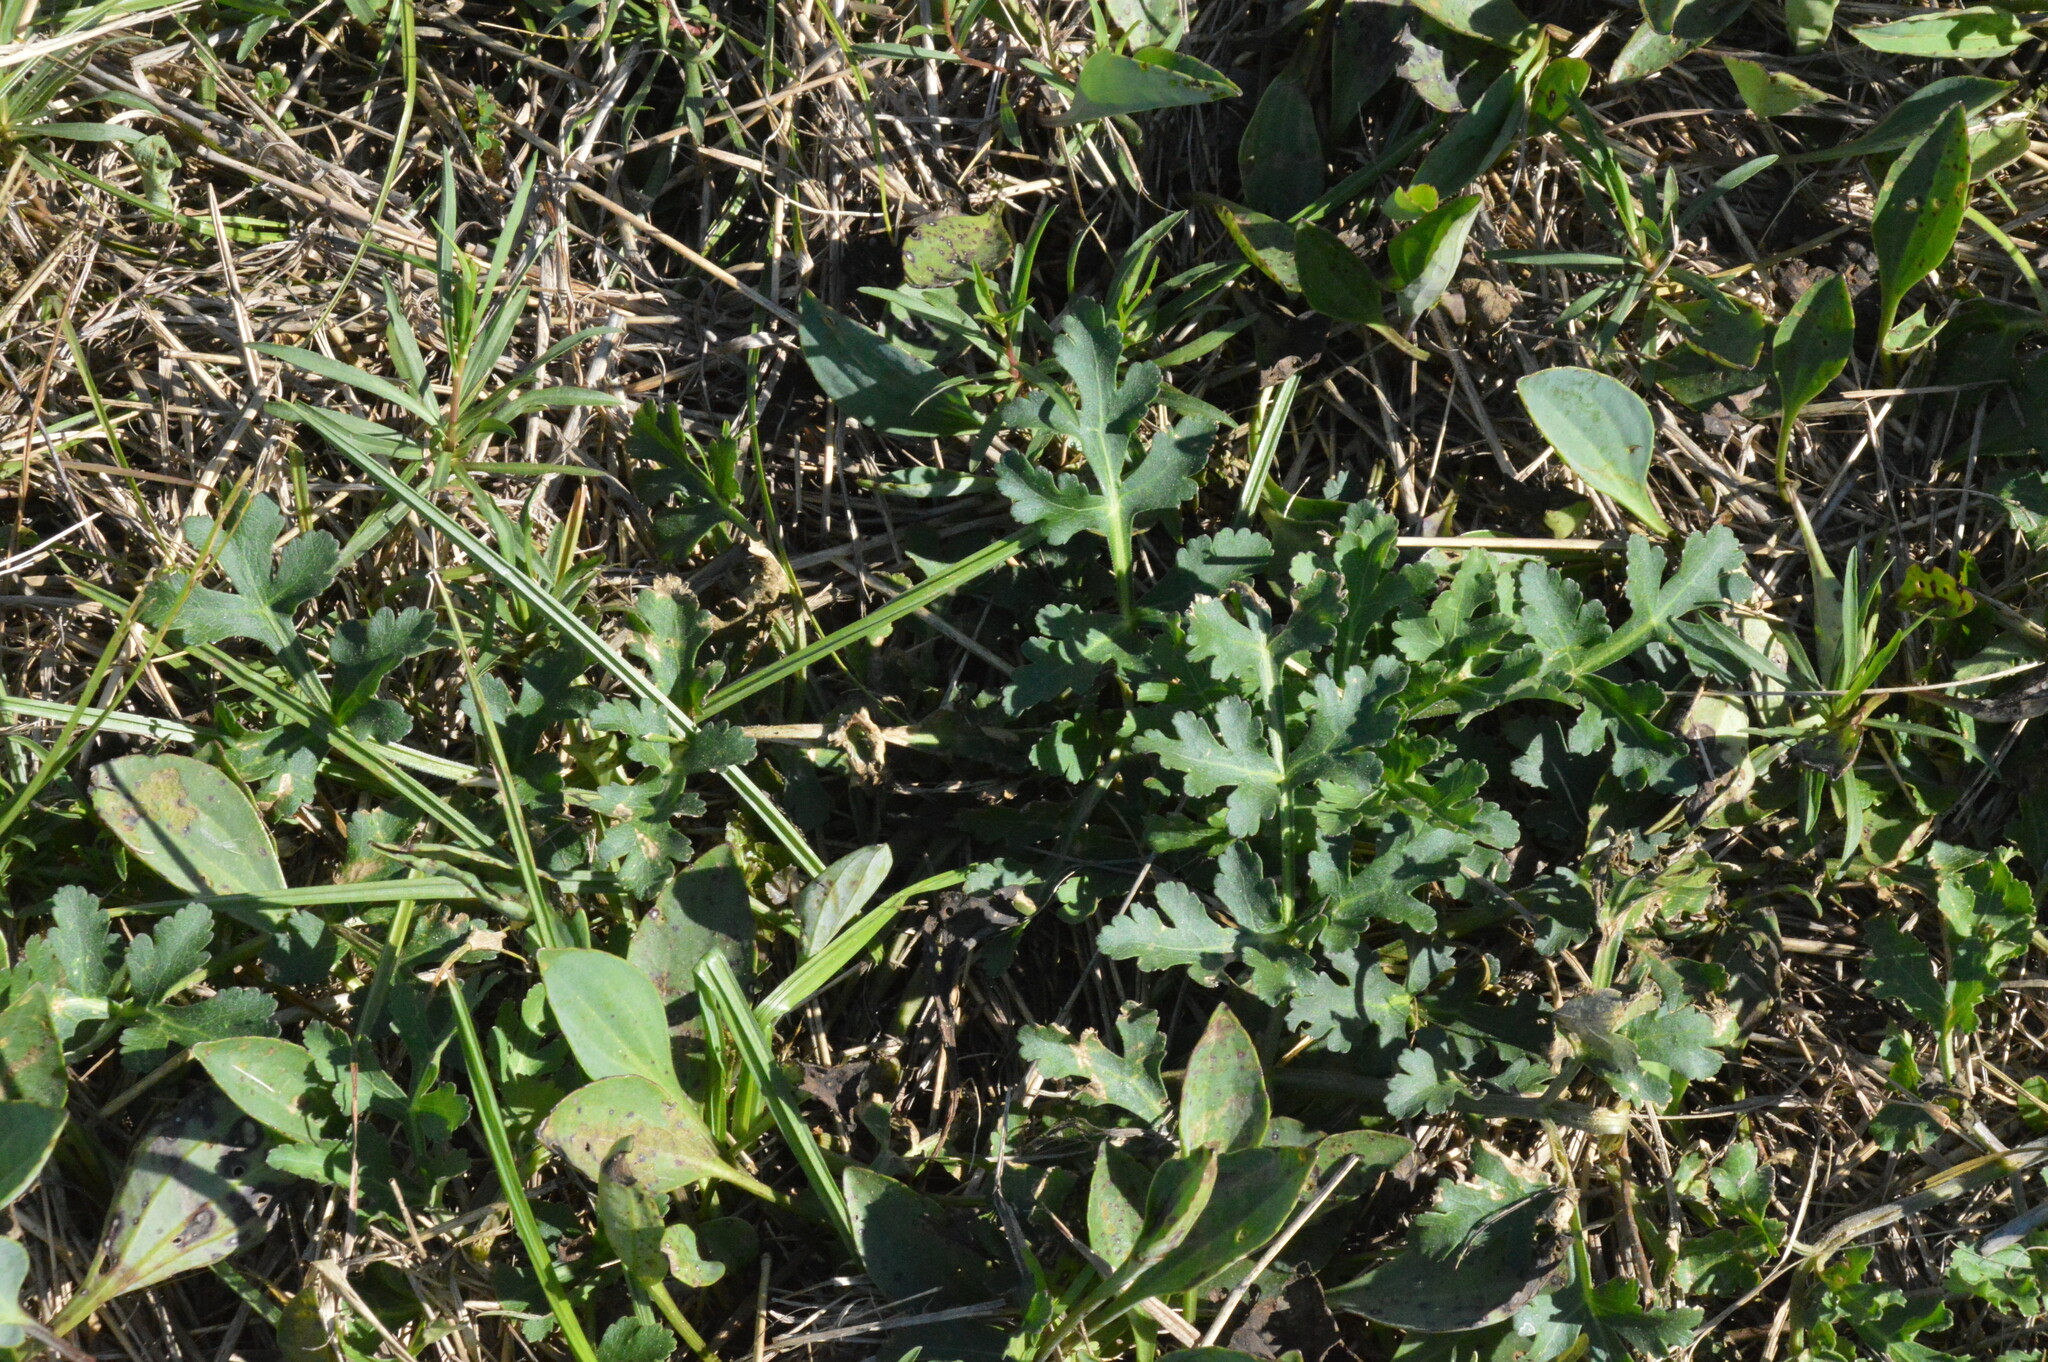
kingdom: Plantae
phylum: Tracheophyta
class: Magnoliopsida
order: Apiales
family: Apiaceae
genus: Polytaenia
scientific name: Polytaenia texana
